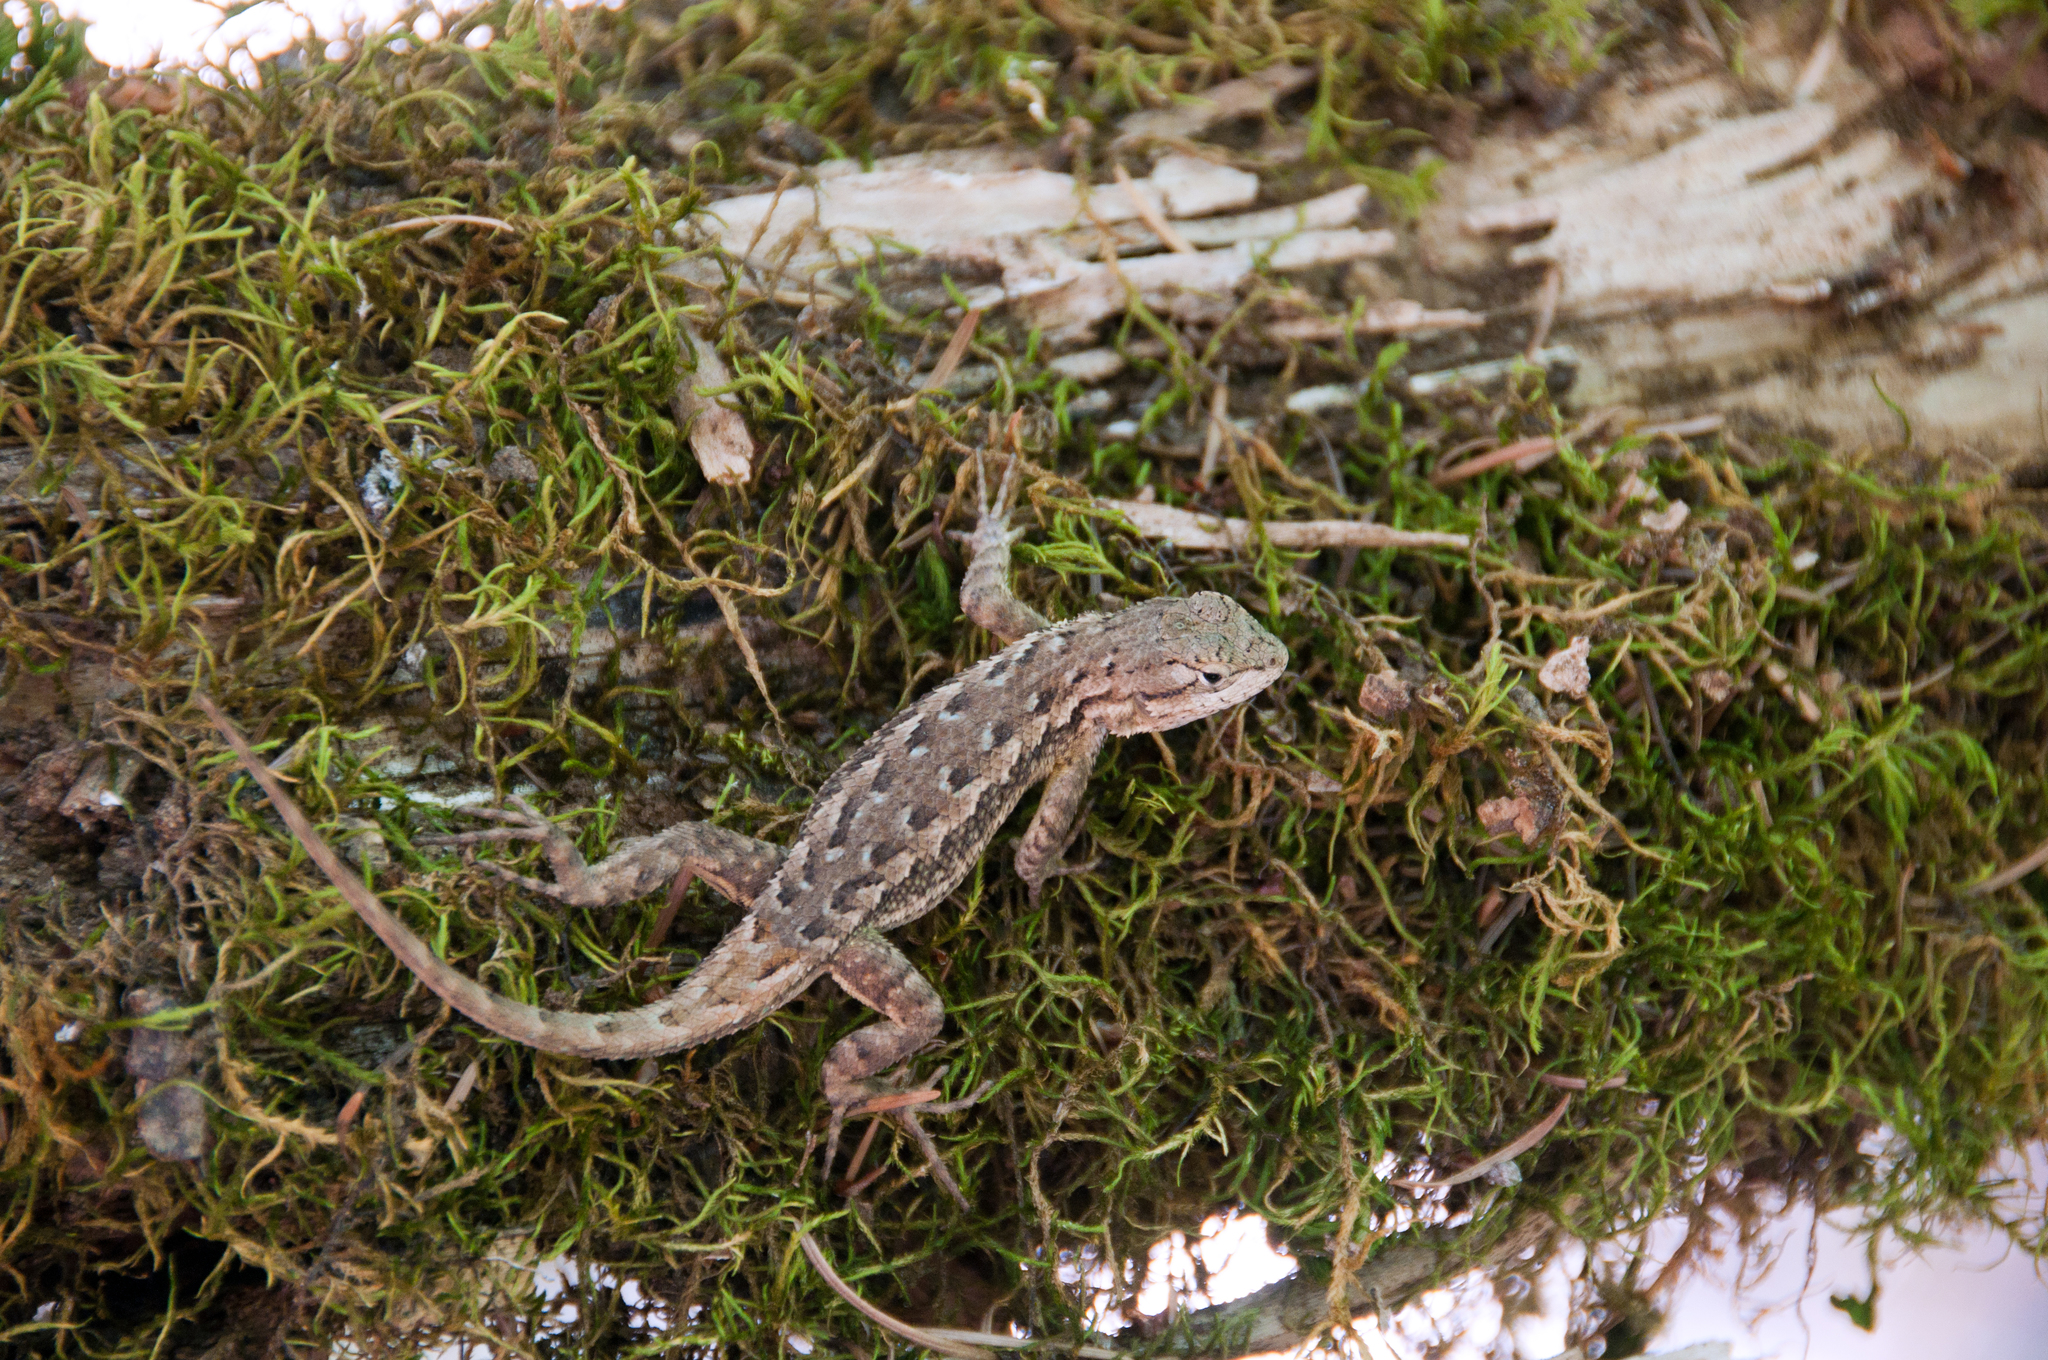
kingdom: Animalia
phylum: Chordata
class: Squamata
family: Phrynosomatidae
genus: Sceloporus
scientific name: Sceloporus occidentalis
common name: Western fence lizard
